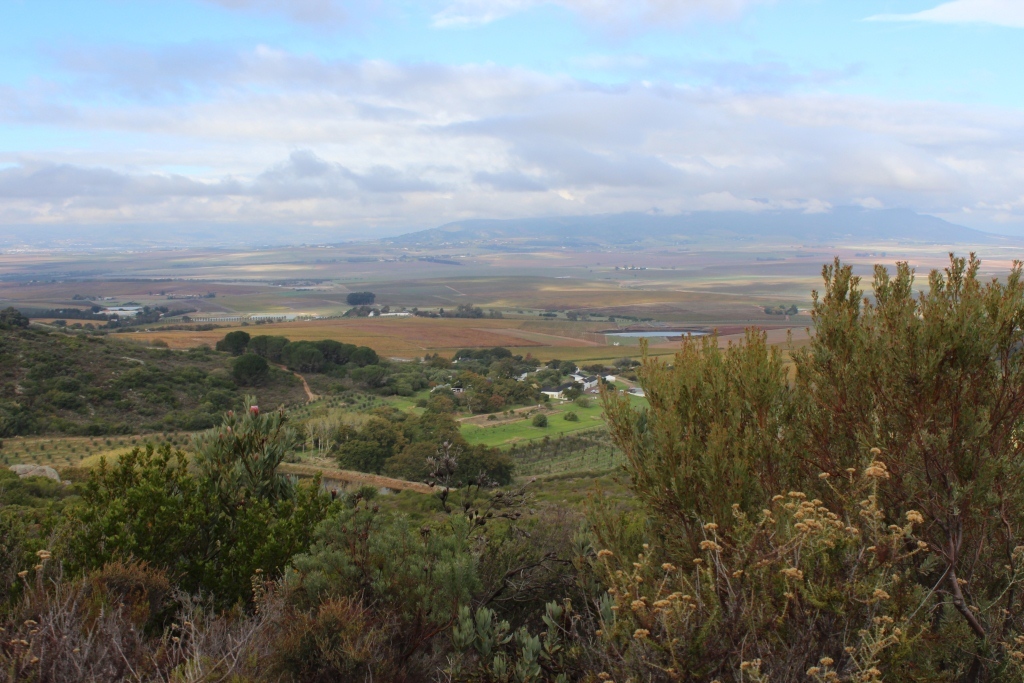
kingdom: Plantae
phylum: Tracheophyta
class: Magnoliopsida
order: Proteales
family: Proteaceae
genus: Leucadendron
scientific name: Leucadendron rubrum
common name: Spinning top
